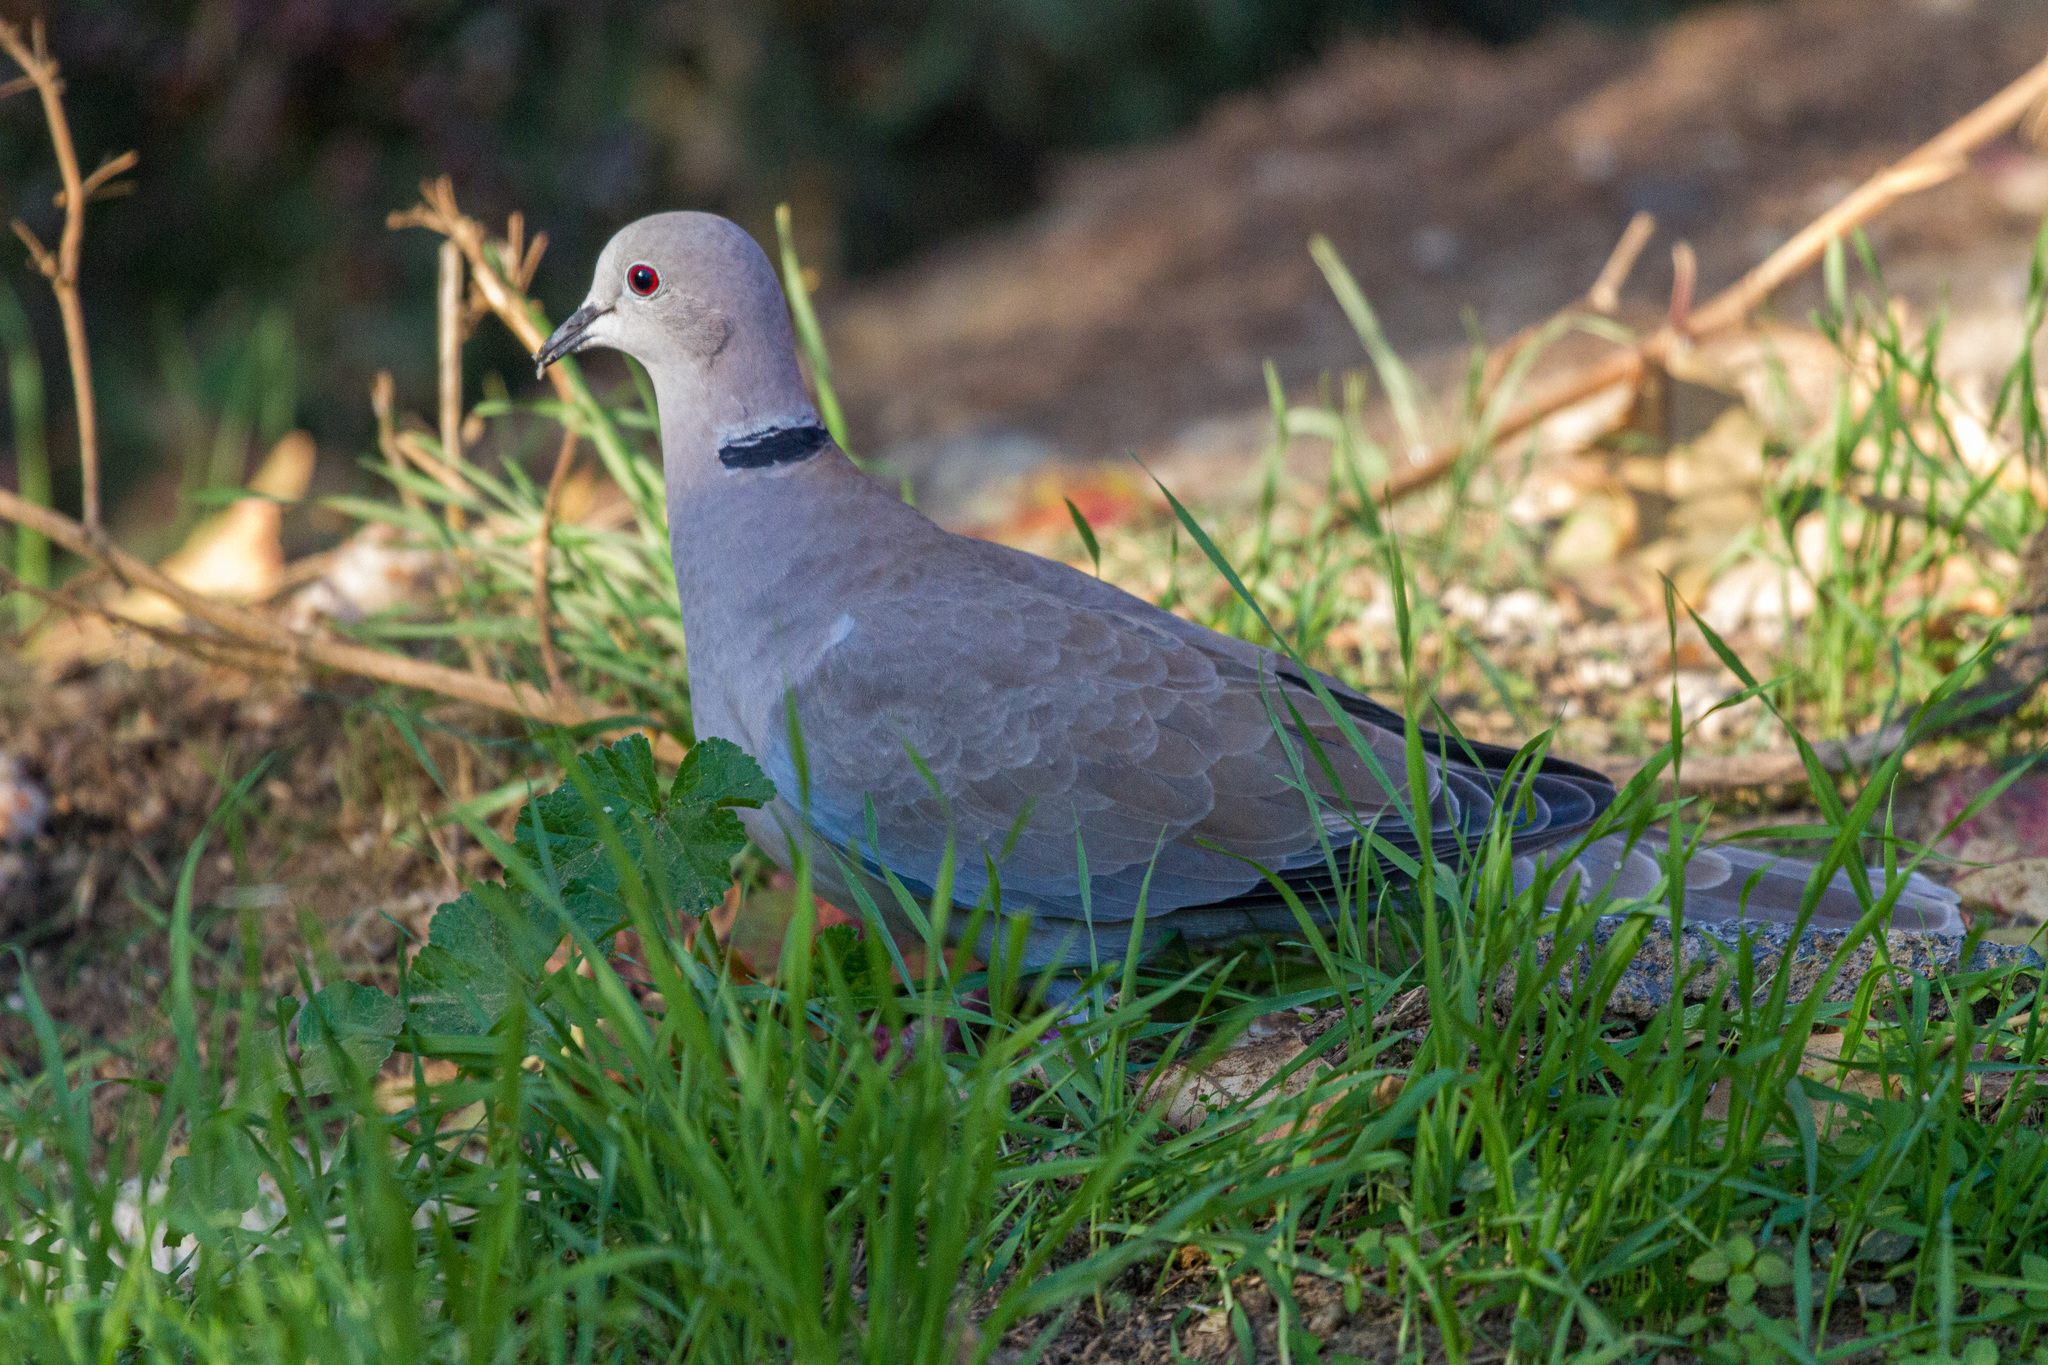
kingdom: Animalia
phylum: Chordata
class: Aves
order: Columbiformes
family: Columbidae
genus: Streptopelia
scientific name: Streptopelia decaocto
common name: Eurasian collared dove
